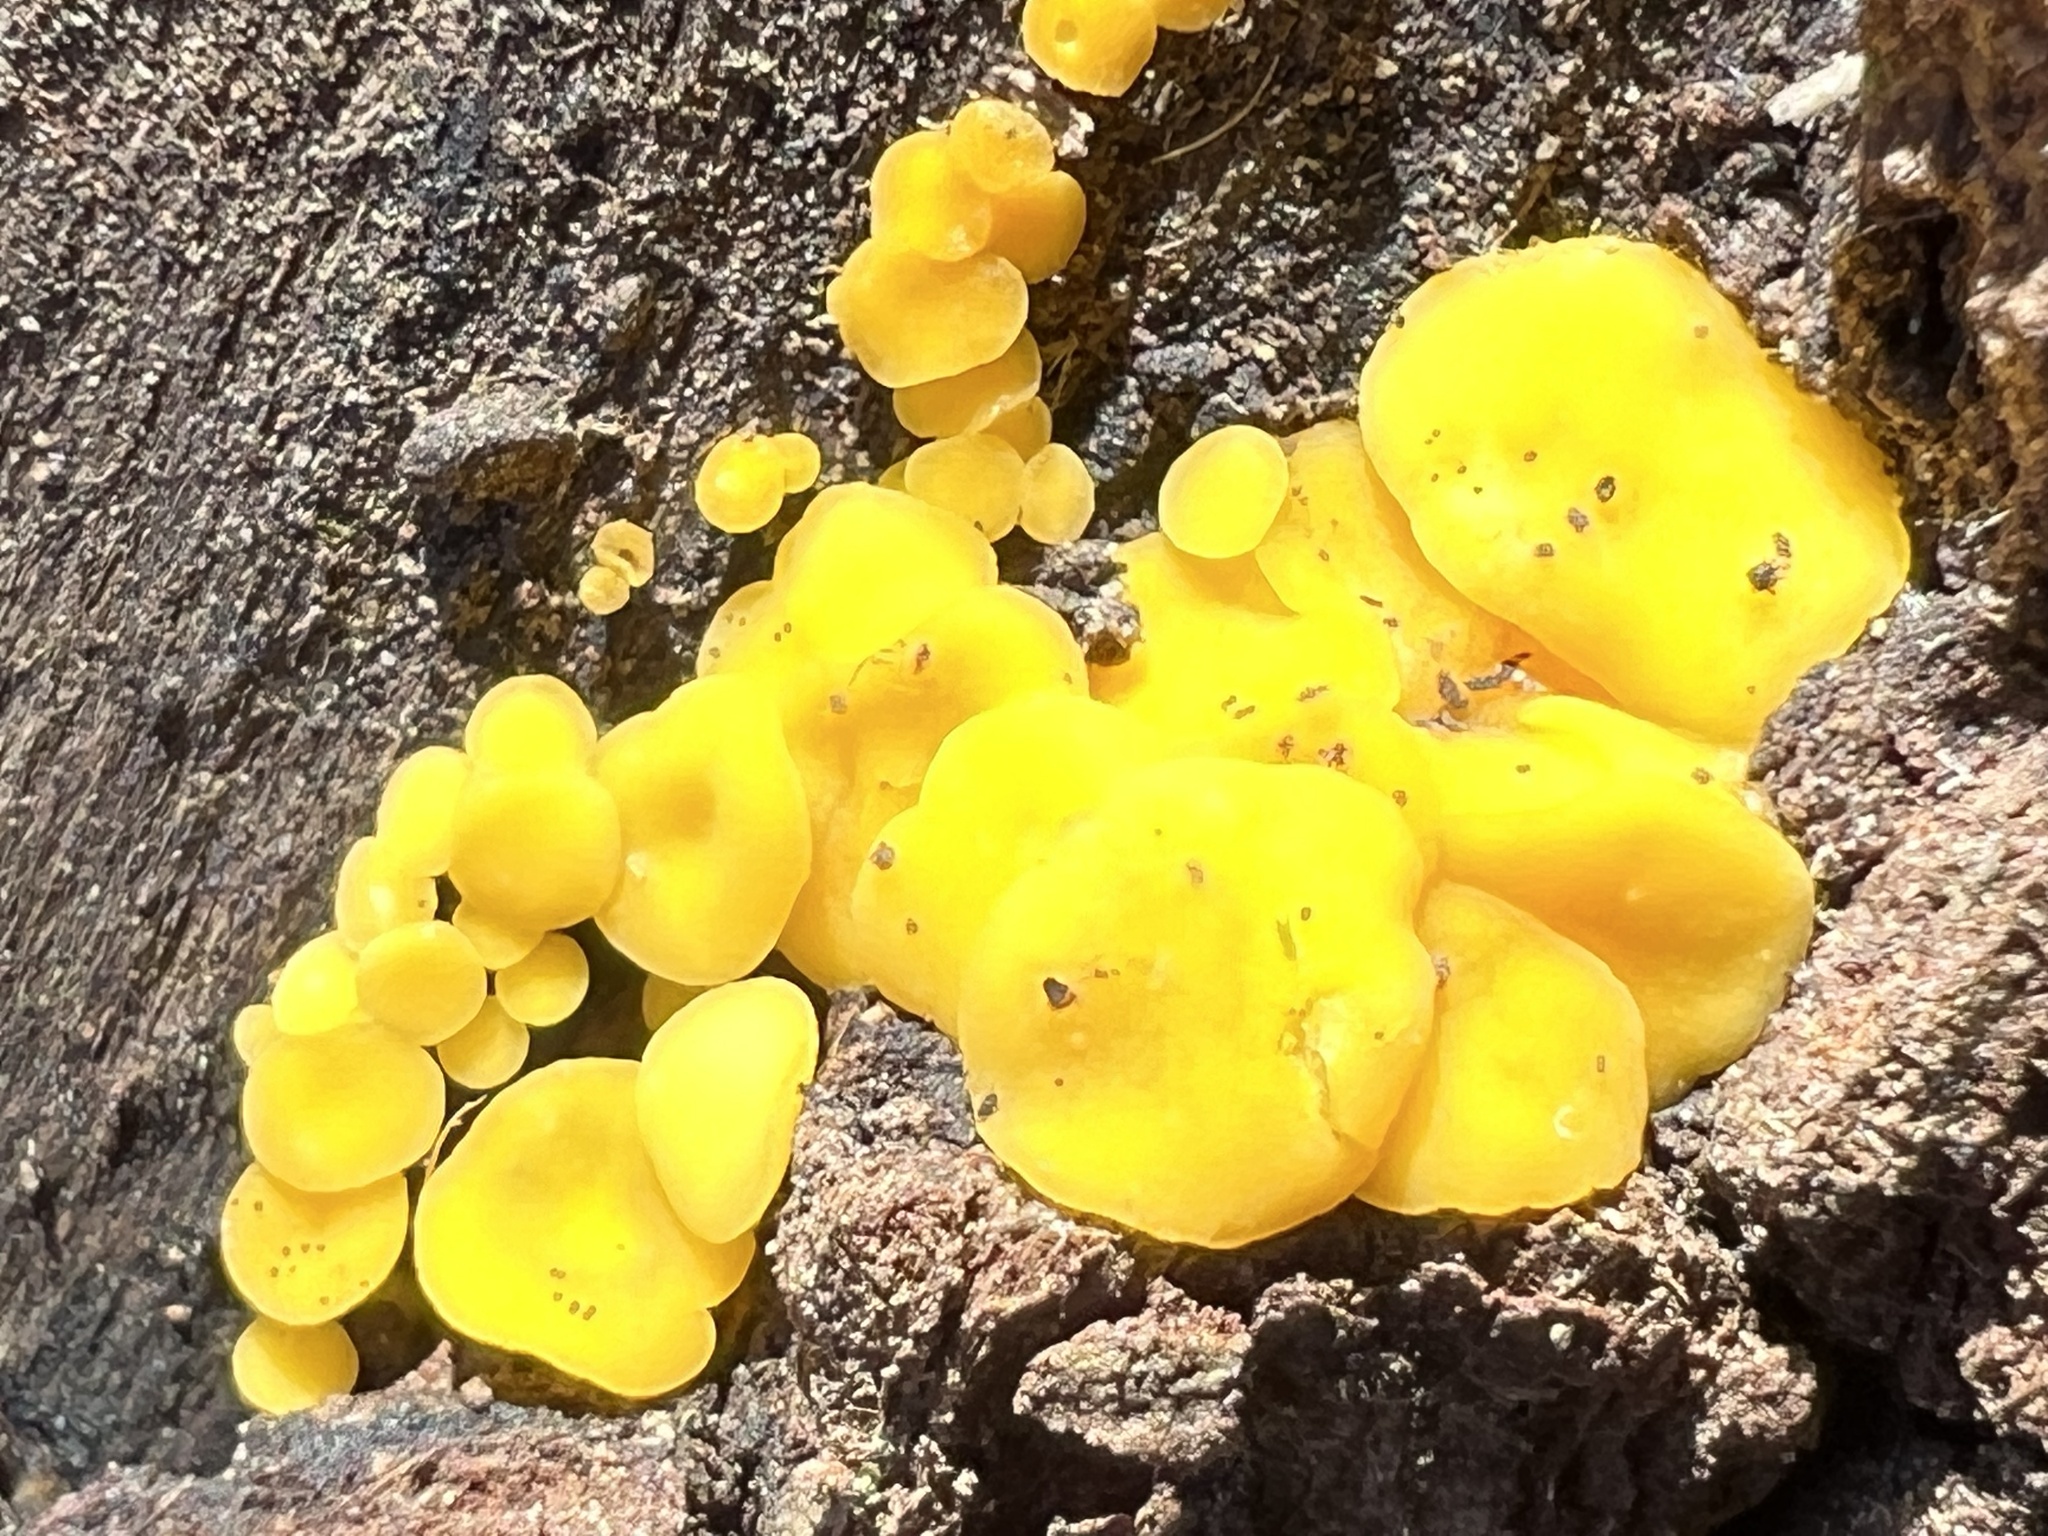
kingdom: Fungi
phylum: Ascomycota
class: Leotiomycetes
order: Helotiales
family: Pezizellaceae
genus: Calycina
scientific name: Calycina citrina
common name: Yellow fairy cups
